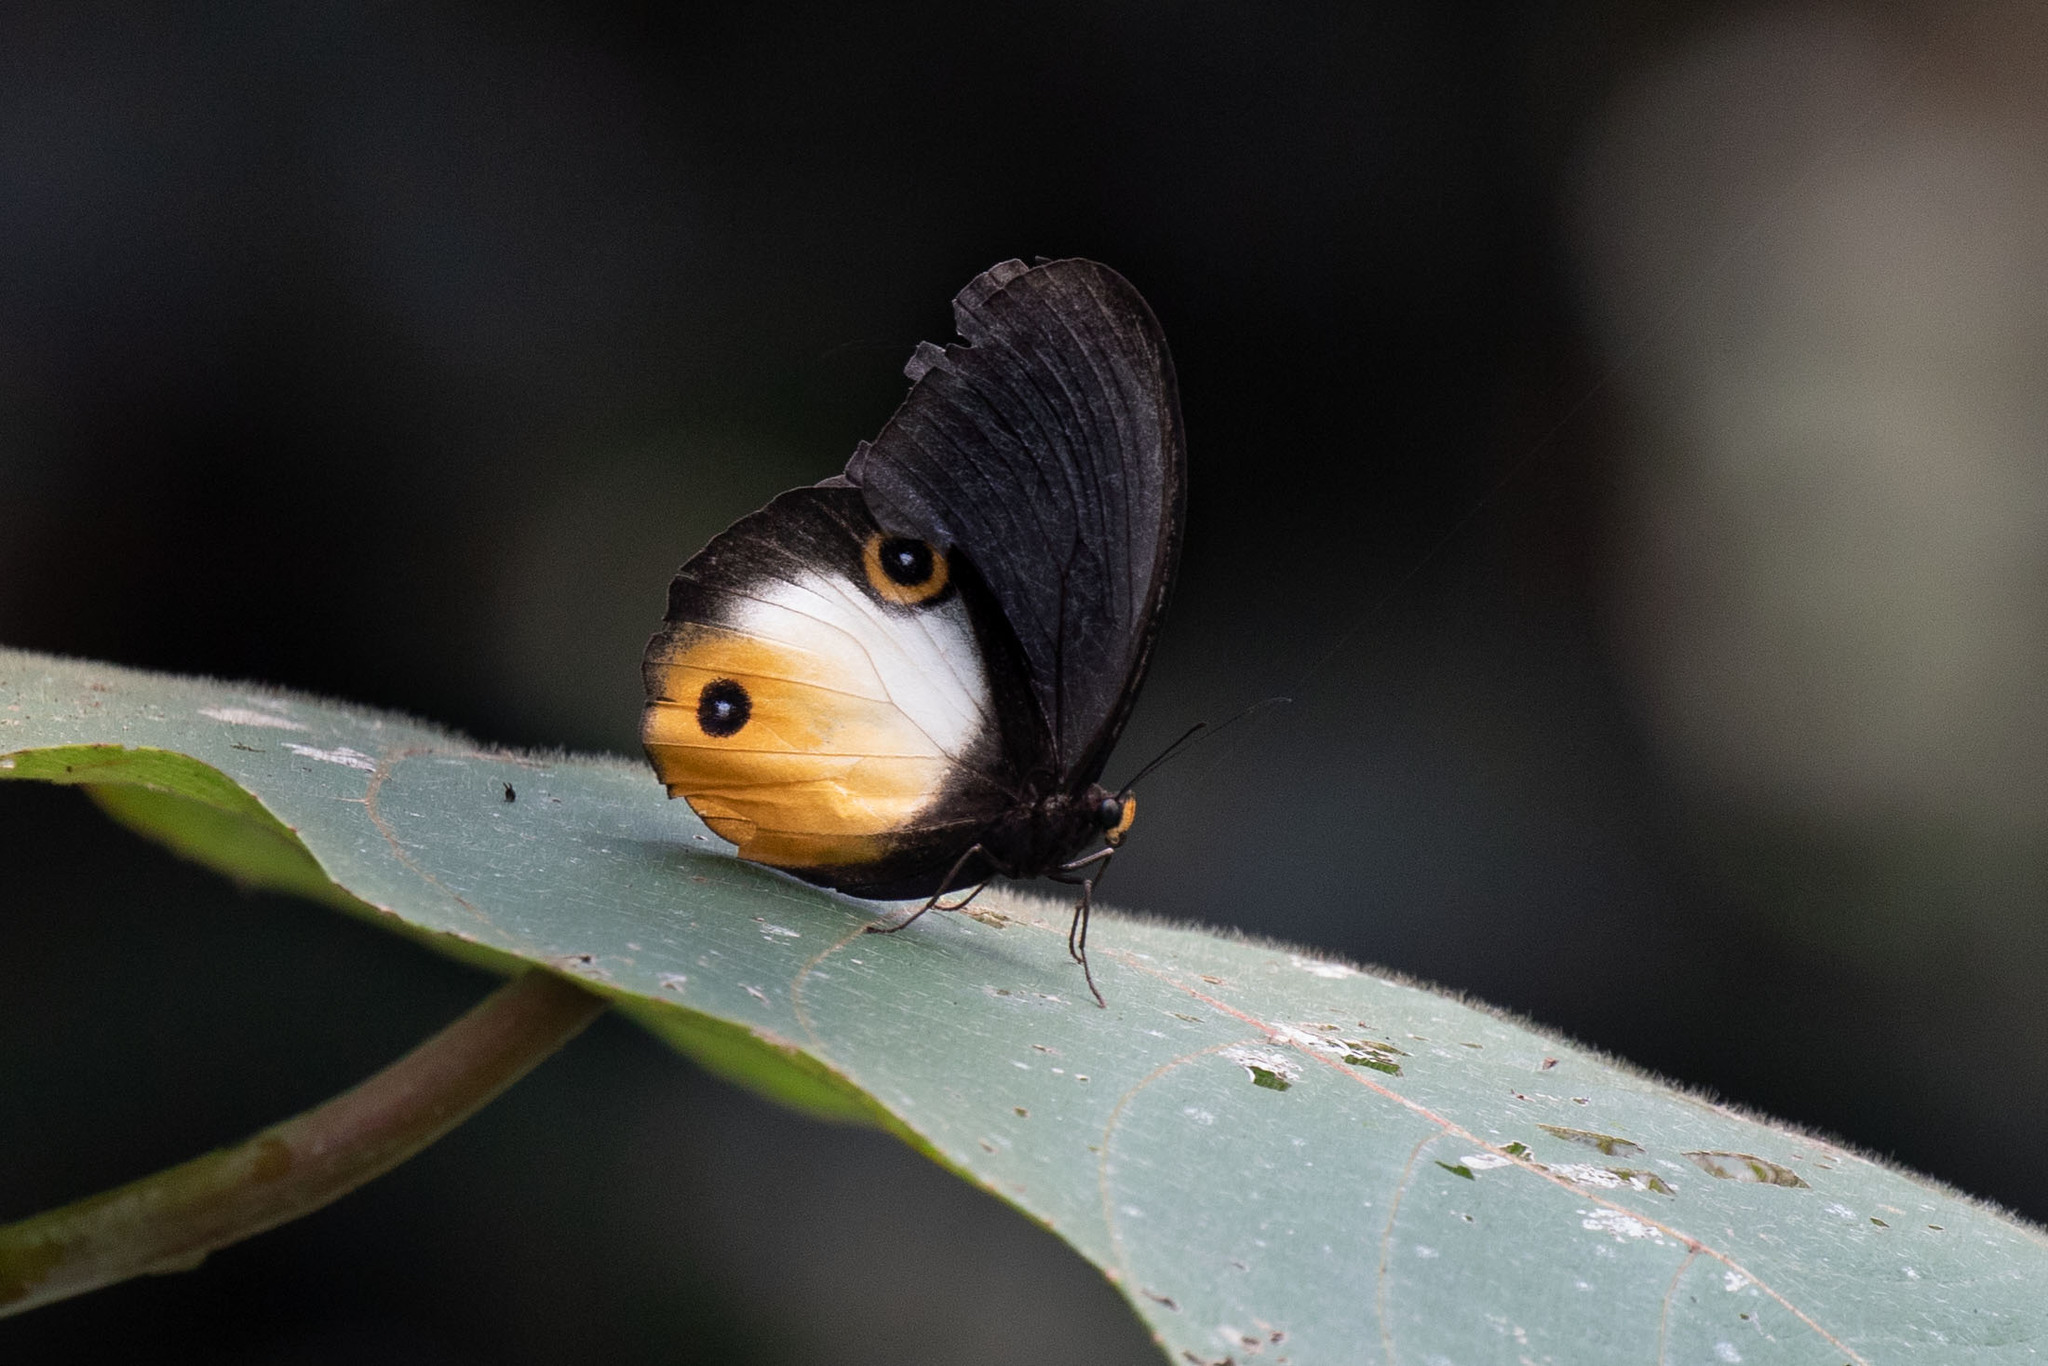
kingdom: Animalia
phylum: Arthropoda
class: Insecta
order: Lepidoptera
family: Nymphalidae
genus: Taenaris
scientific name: Taenaris onolaus
